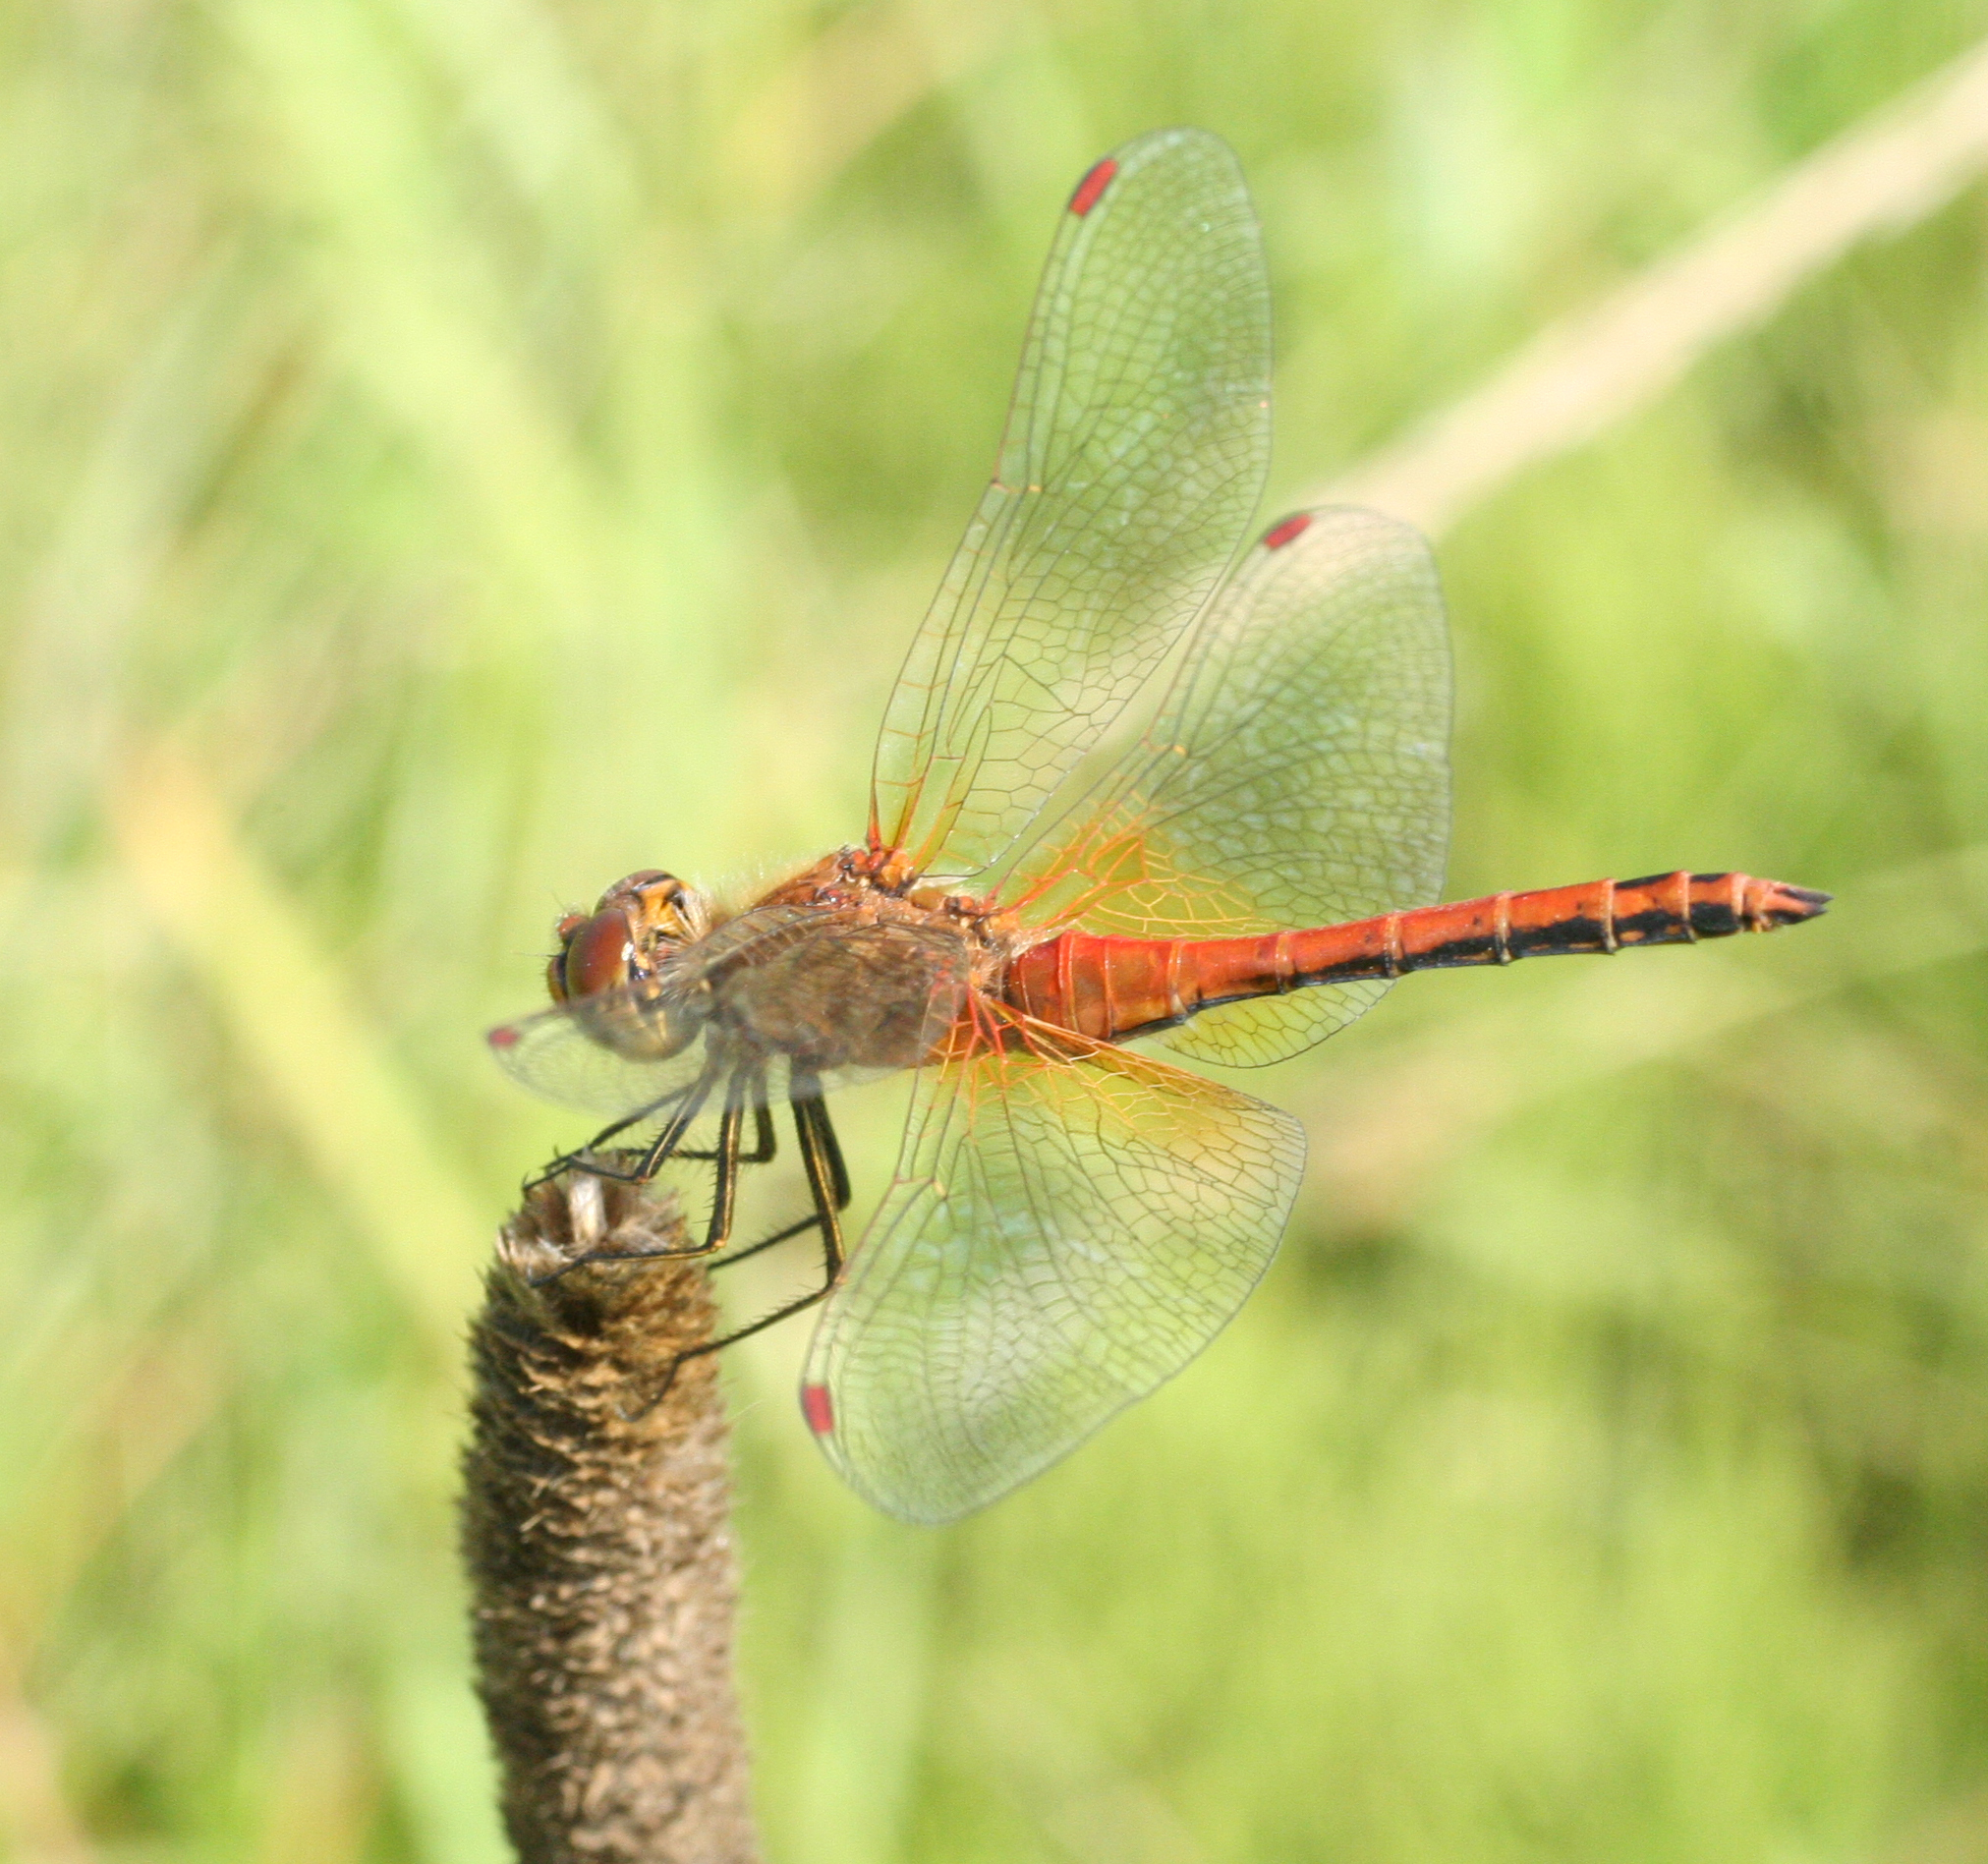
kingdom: Animalia
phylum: Arthropoda
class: Insecta
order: Odonata
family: Libellulidae
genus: Sympetrum
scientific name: Sympetrum flaveolum
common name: Yellow-winged darter
